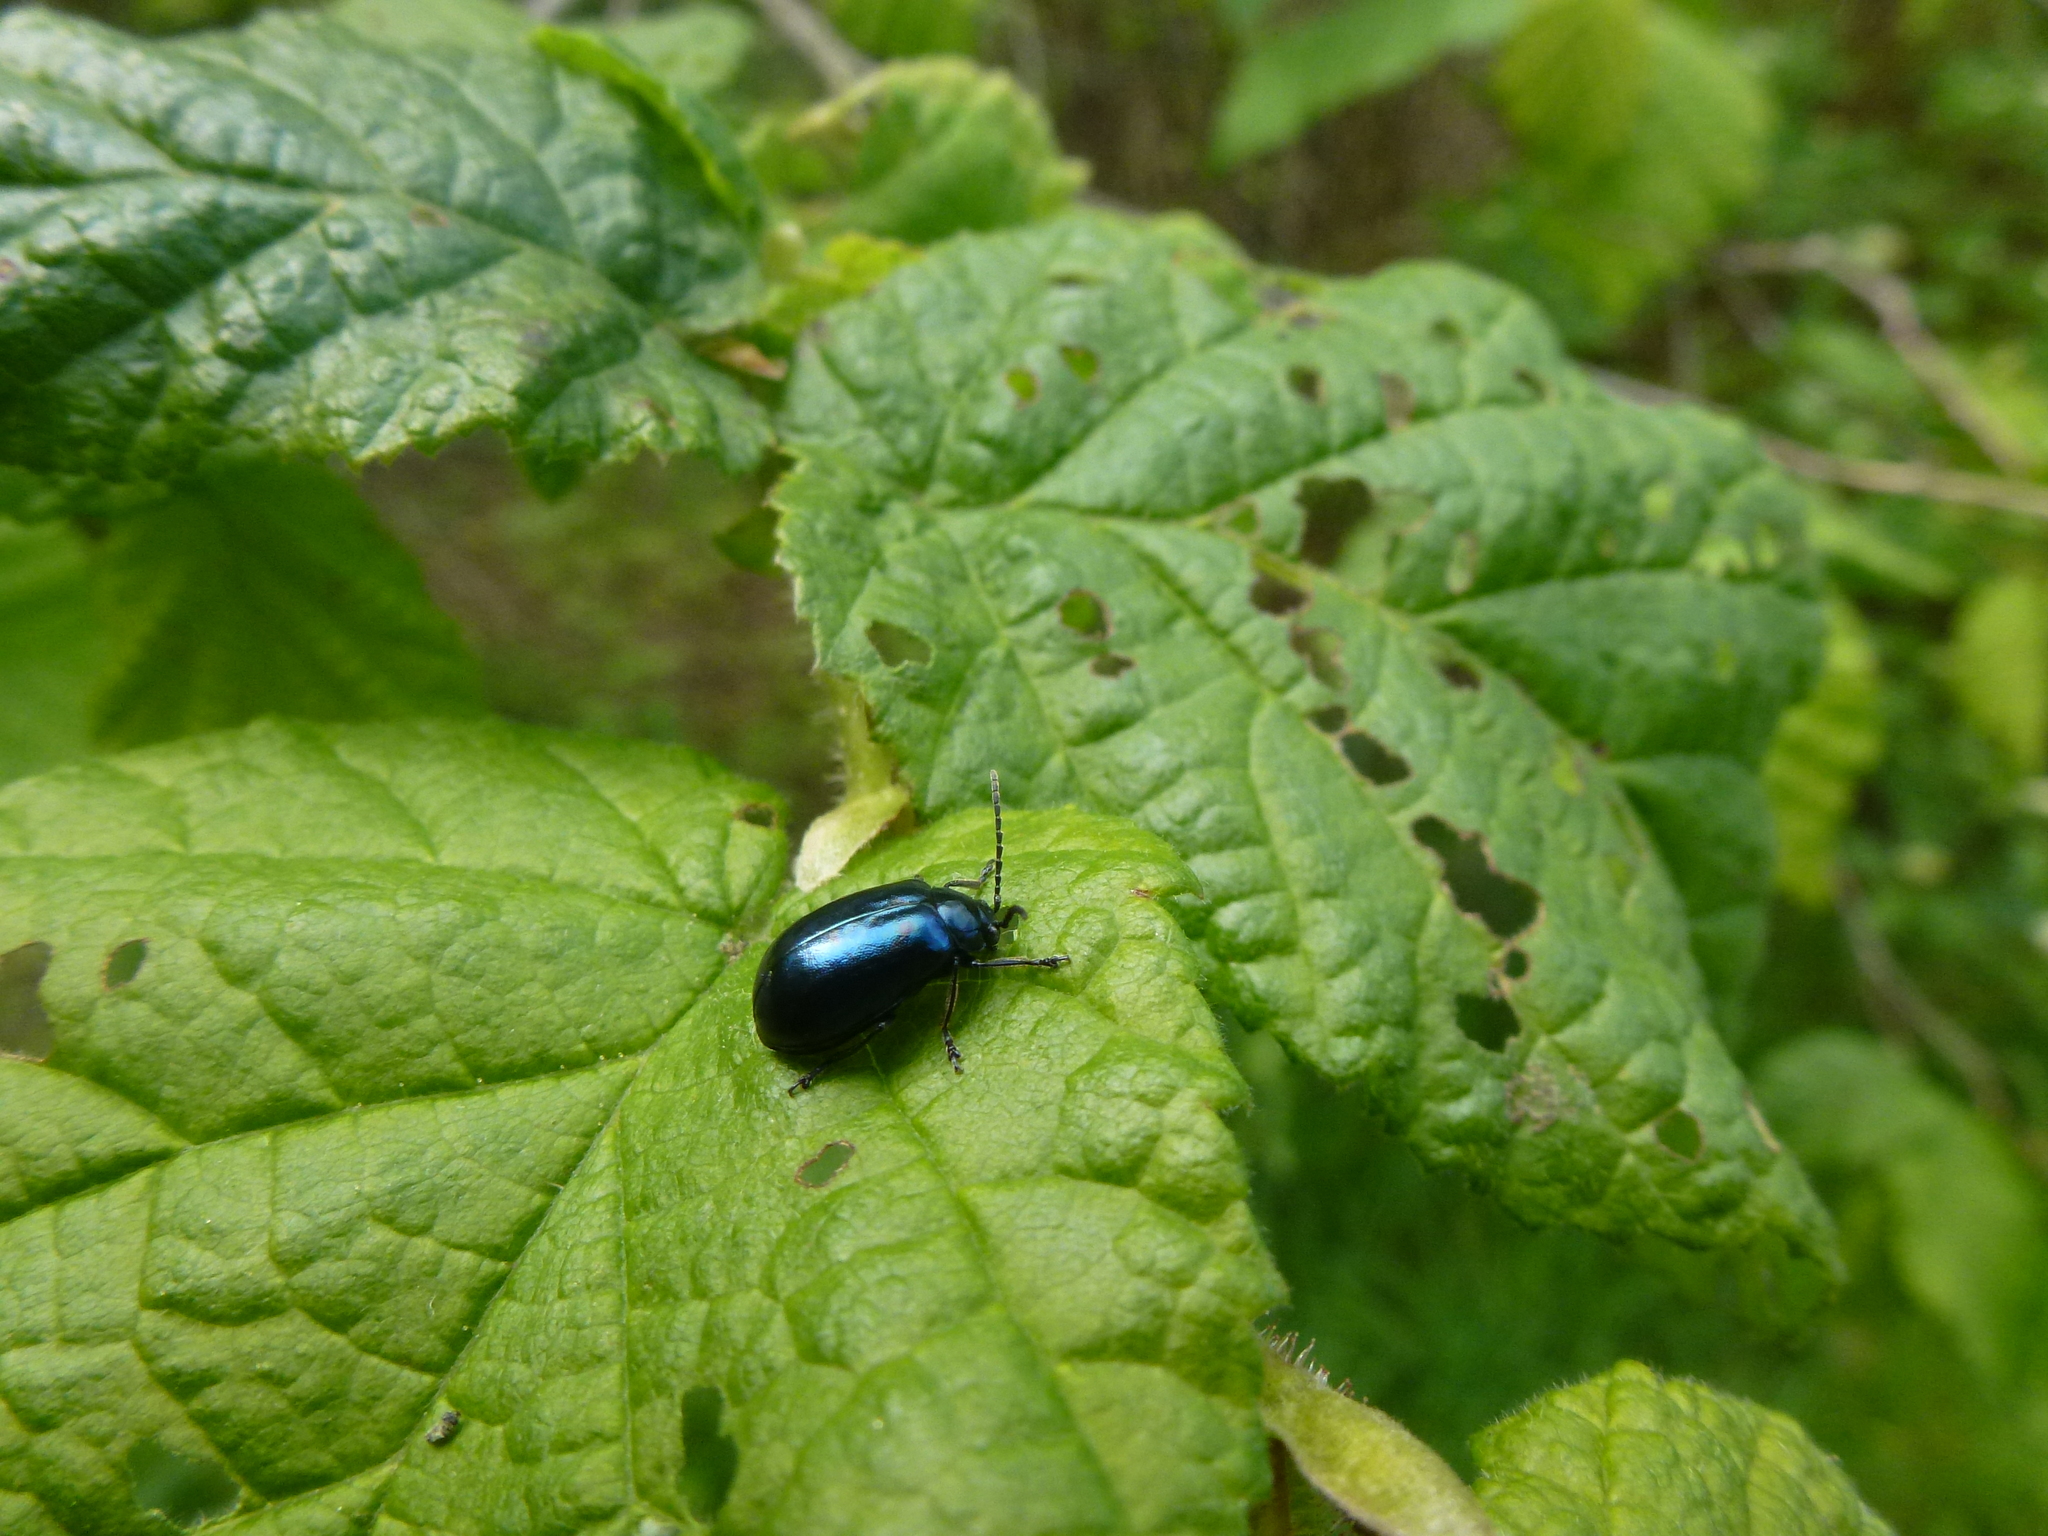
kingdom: Animalia
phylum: Arthropoda
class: Insecta
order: Coleoptera
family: Chrysomelidae
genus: Agelastica
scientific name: Agelastica alni
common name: Alder leaf beetle
